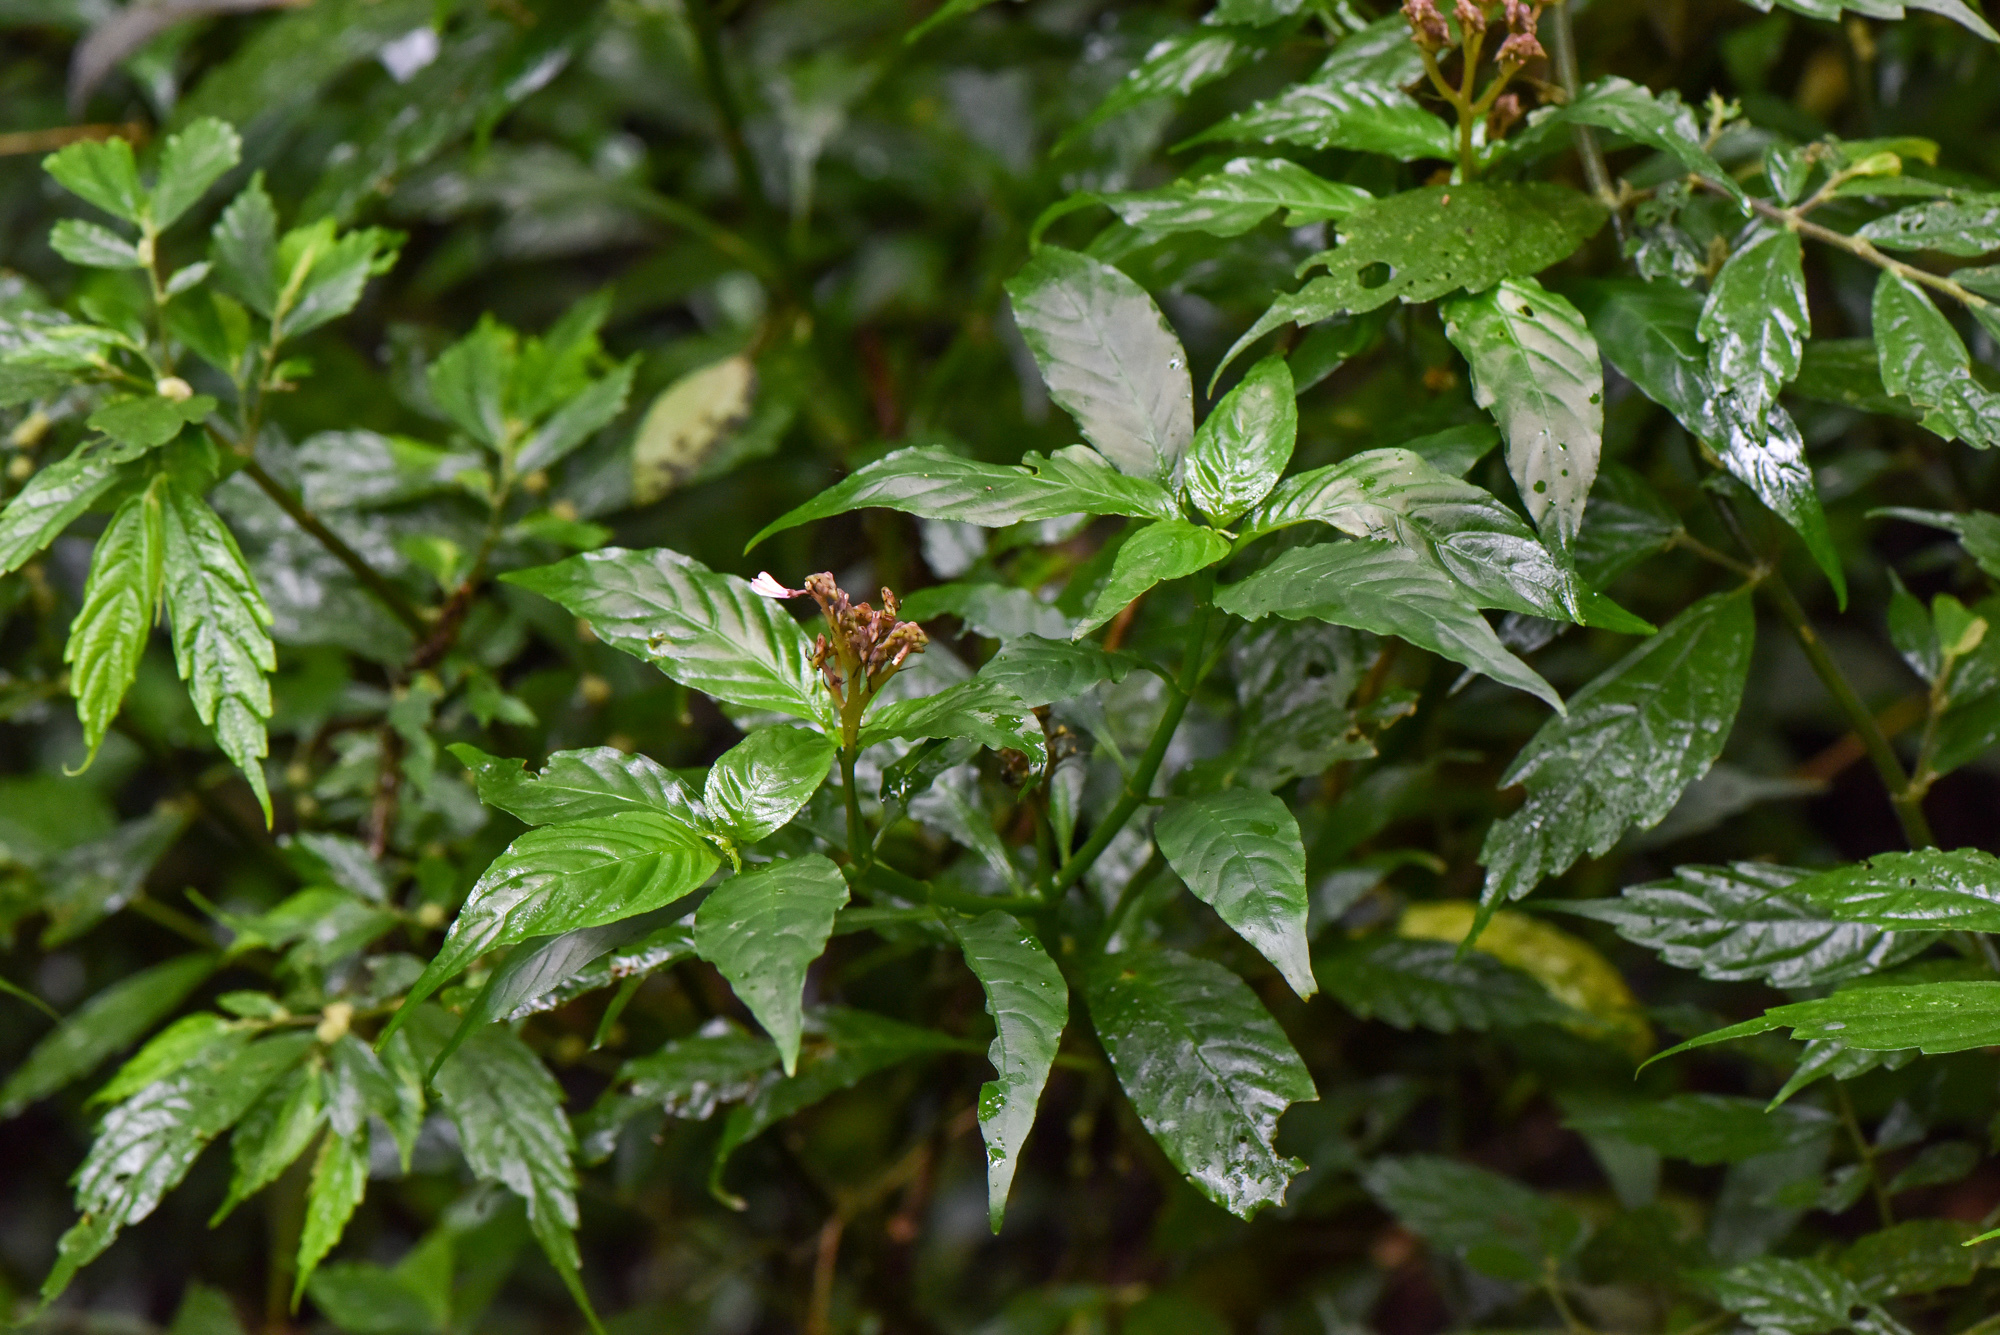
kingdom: Plantae
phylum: Tracheophyta
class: Magnoliopsida
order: Gentianales
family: Rubiaceae
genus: Ophiorrhiza
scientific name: Ophiorrhiza japonica
